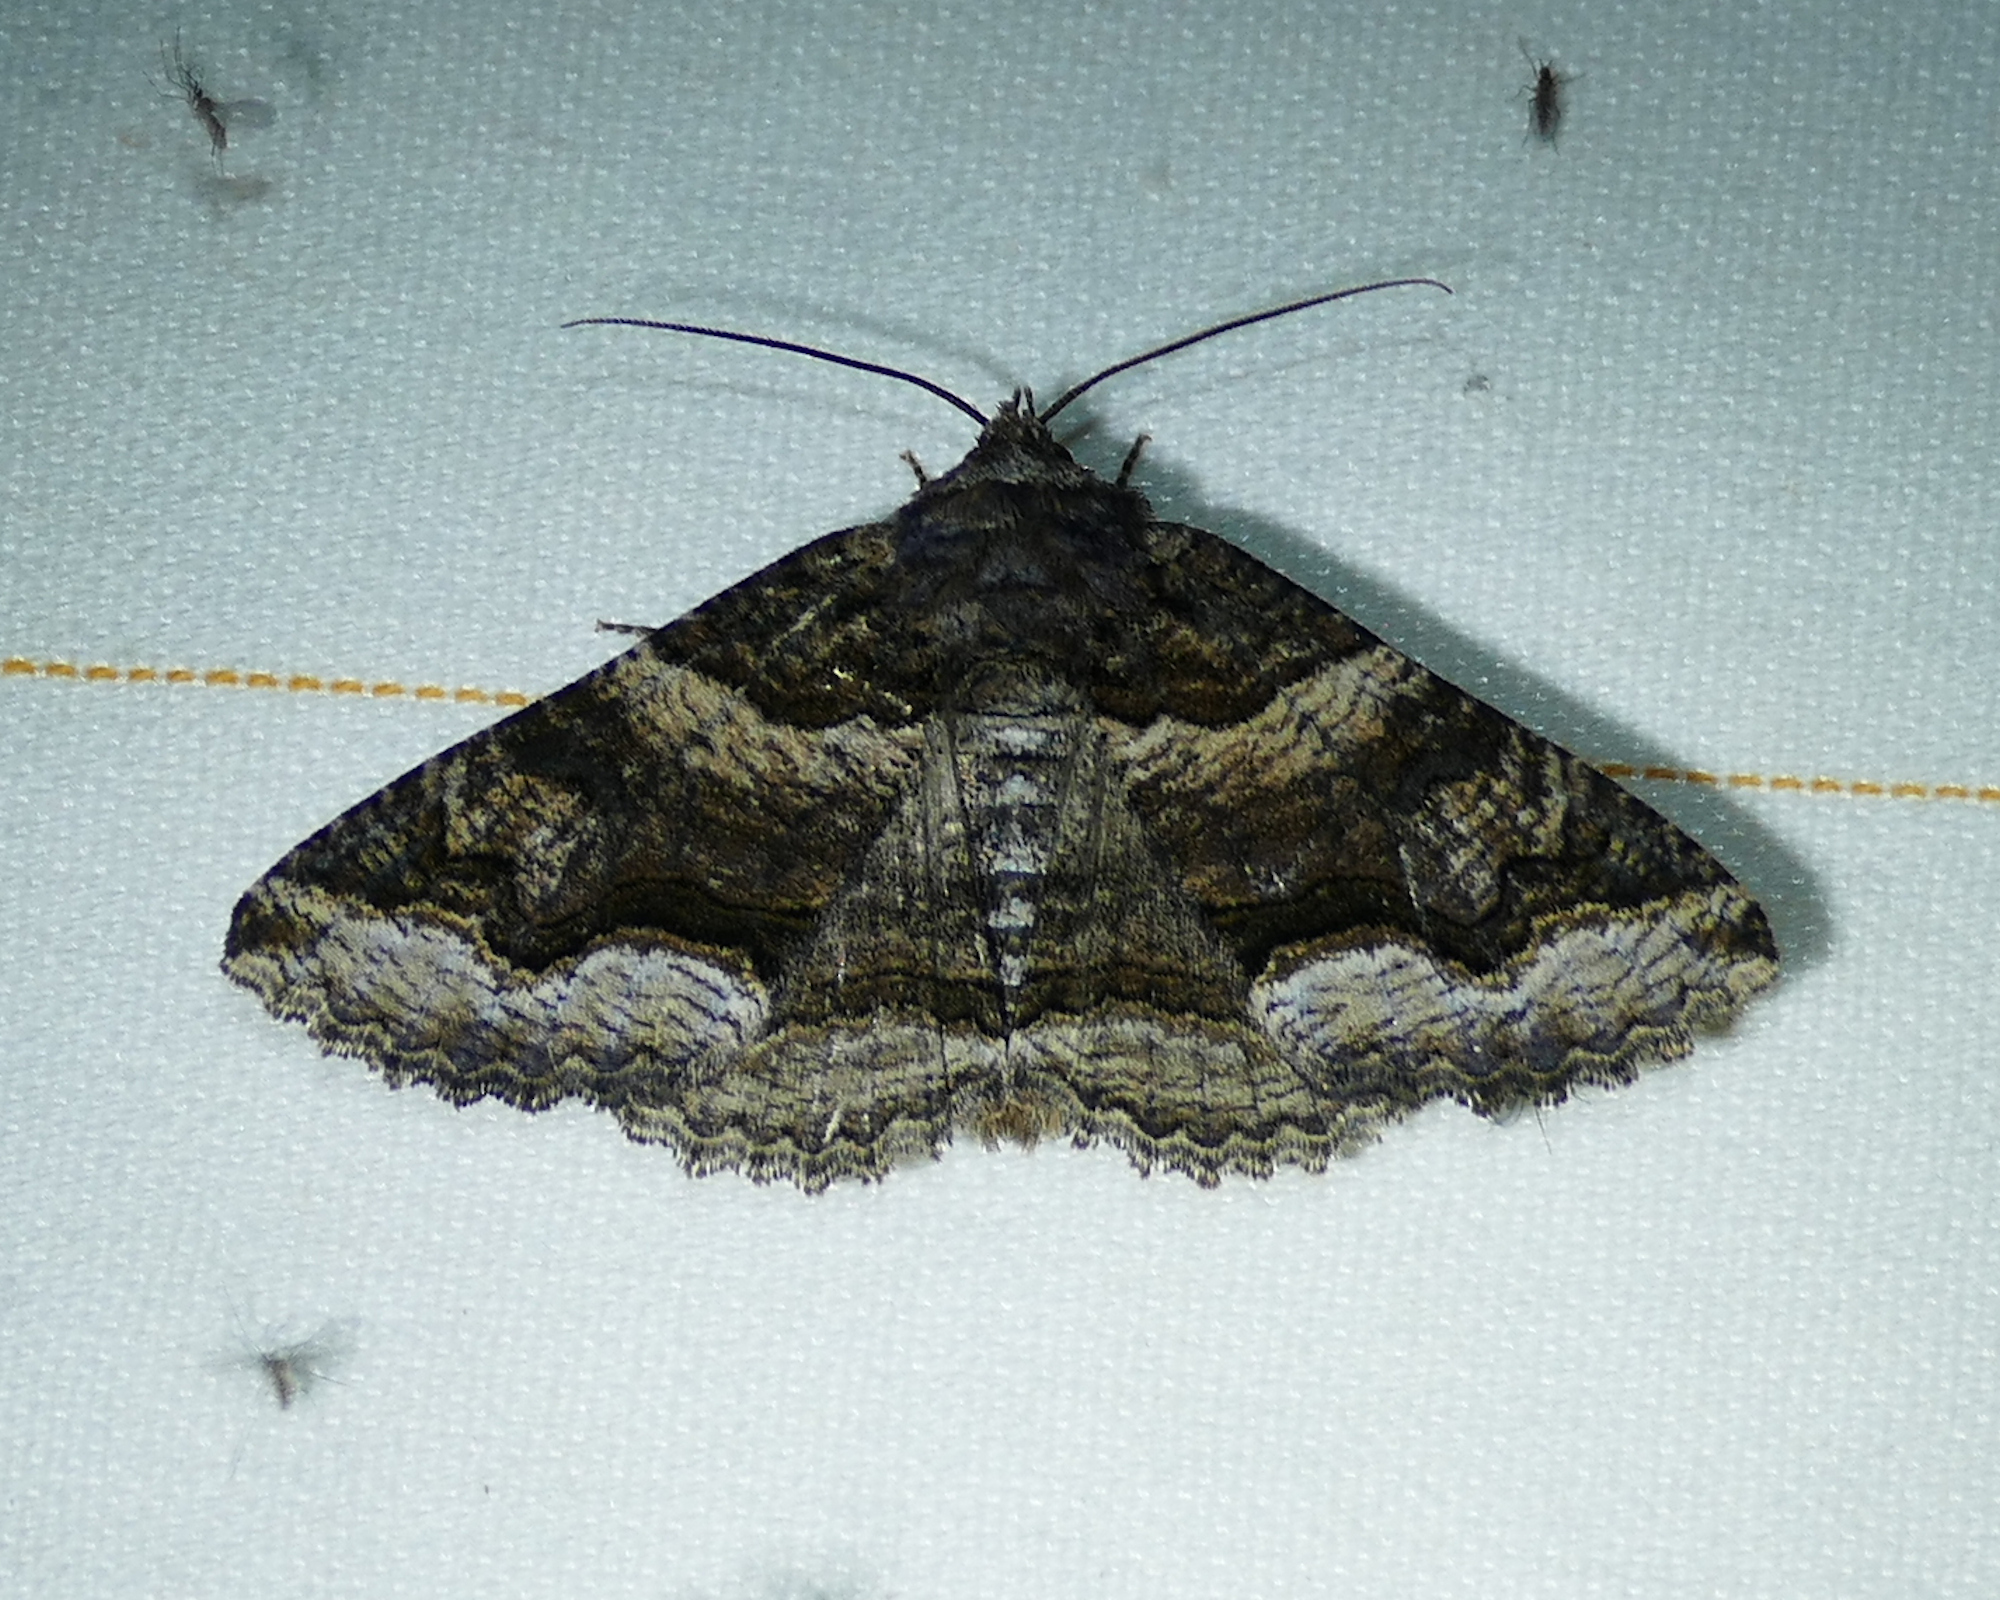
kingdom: Animalia
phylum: Arthropoda
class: Insecta
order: Lepidoptera
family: Erebidae
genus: Zale
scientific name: Zale colorado
